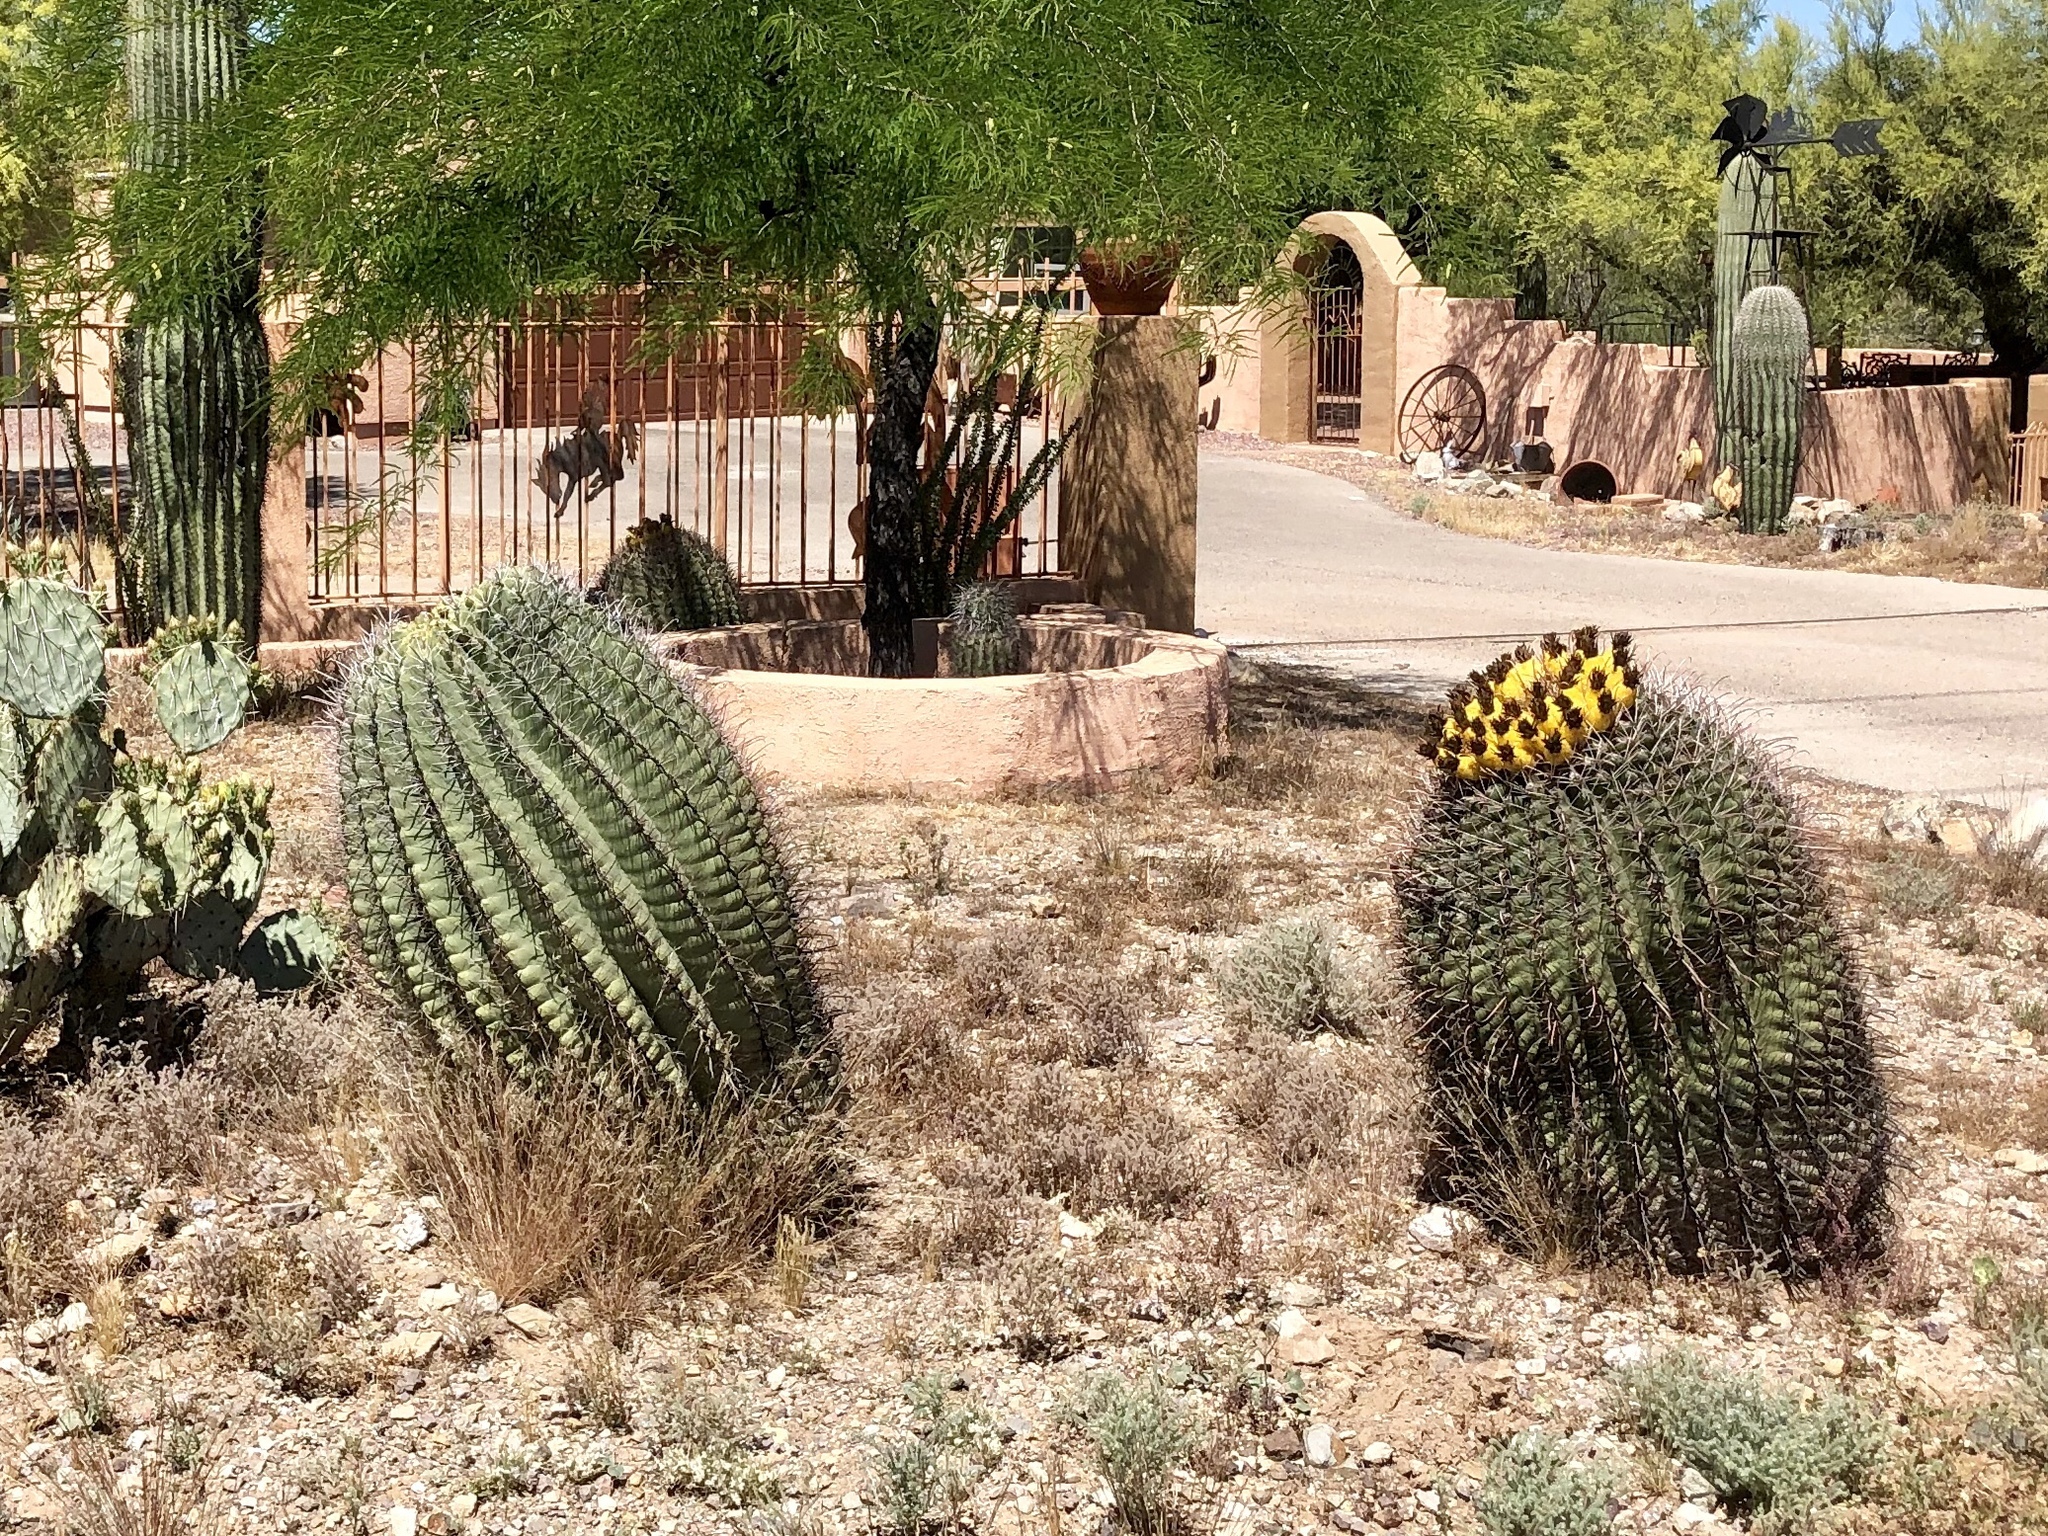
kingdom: Plantae
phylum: Tracheophyta
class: Magnoliopsida
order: Caryophyllales
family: Cactaceae
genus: Ferocactus
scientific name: Ferocactus wislizeni
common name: Candy barrel cactus
